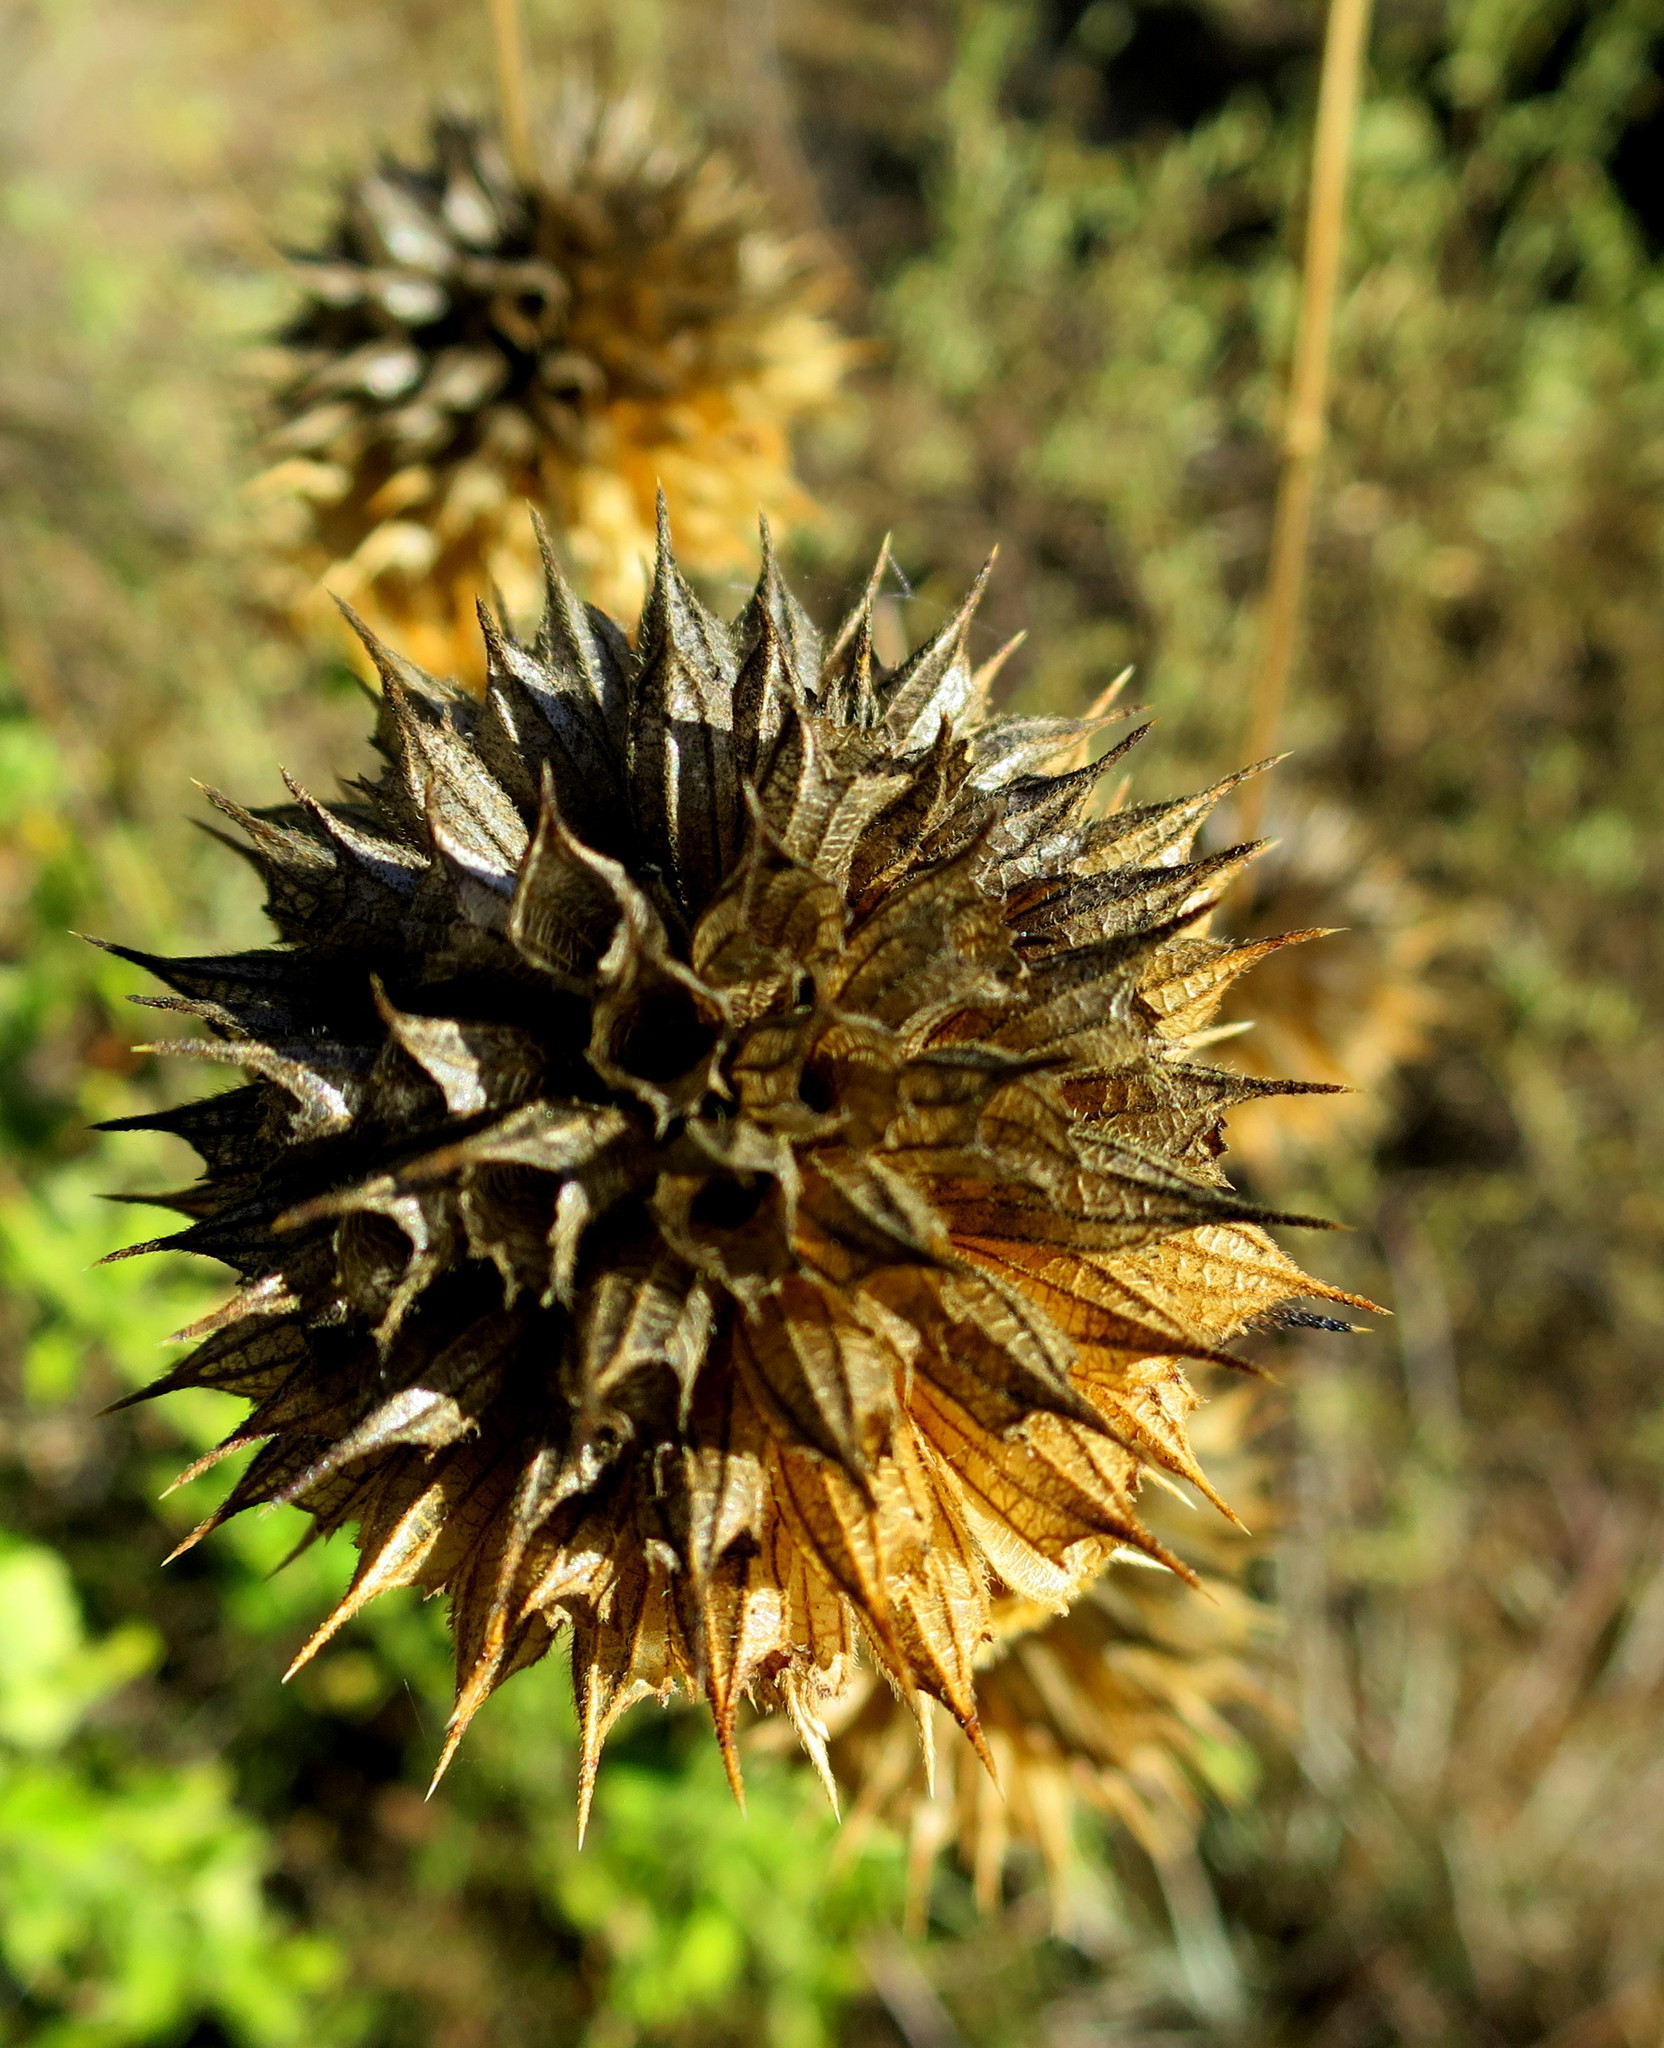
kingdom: Plantae
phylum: Tracheophyta
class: Magnoliopsida
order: Lamiales
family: Lamiaceae
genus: Leonotis
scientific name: Leonotis ocymifolia
